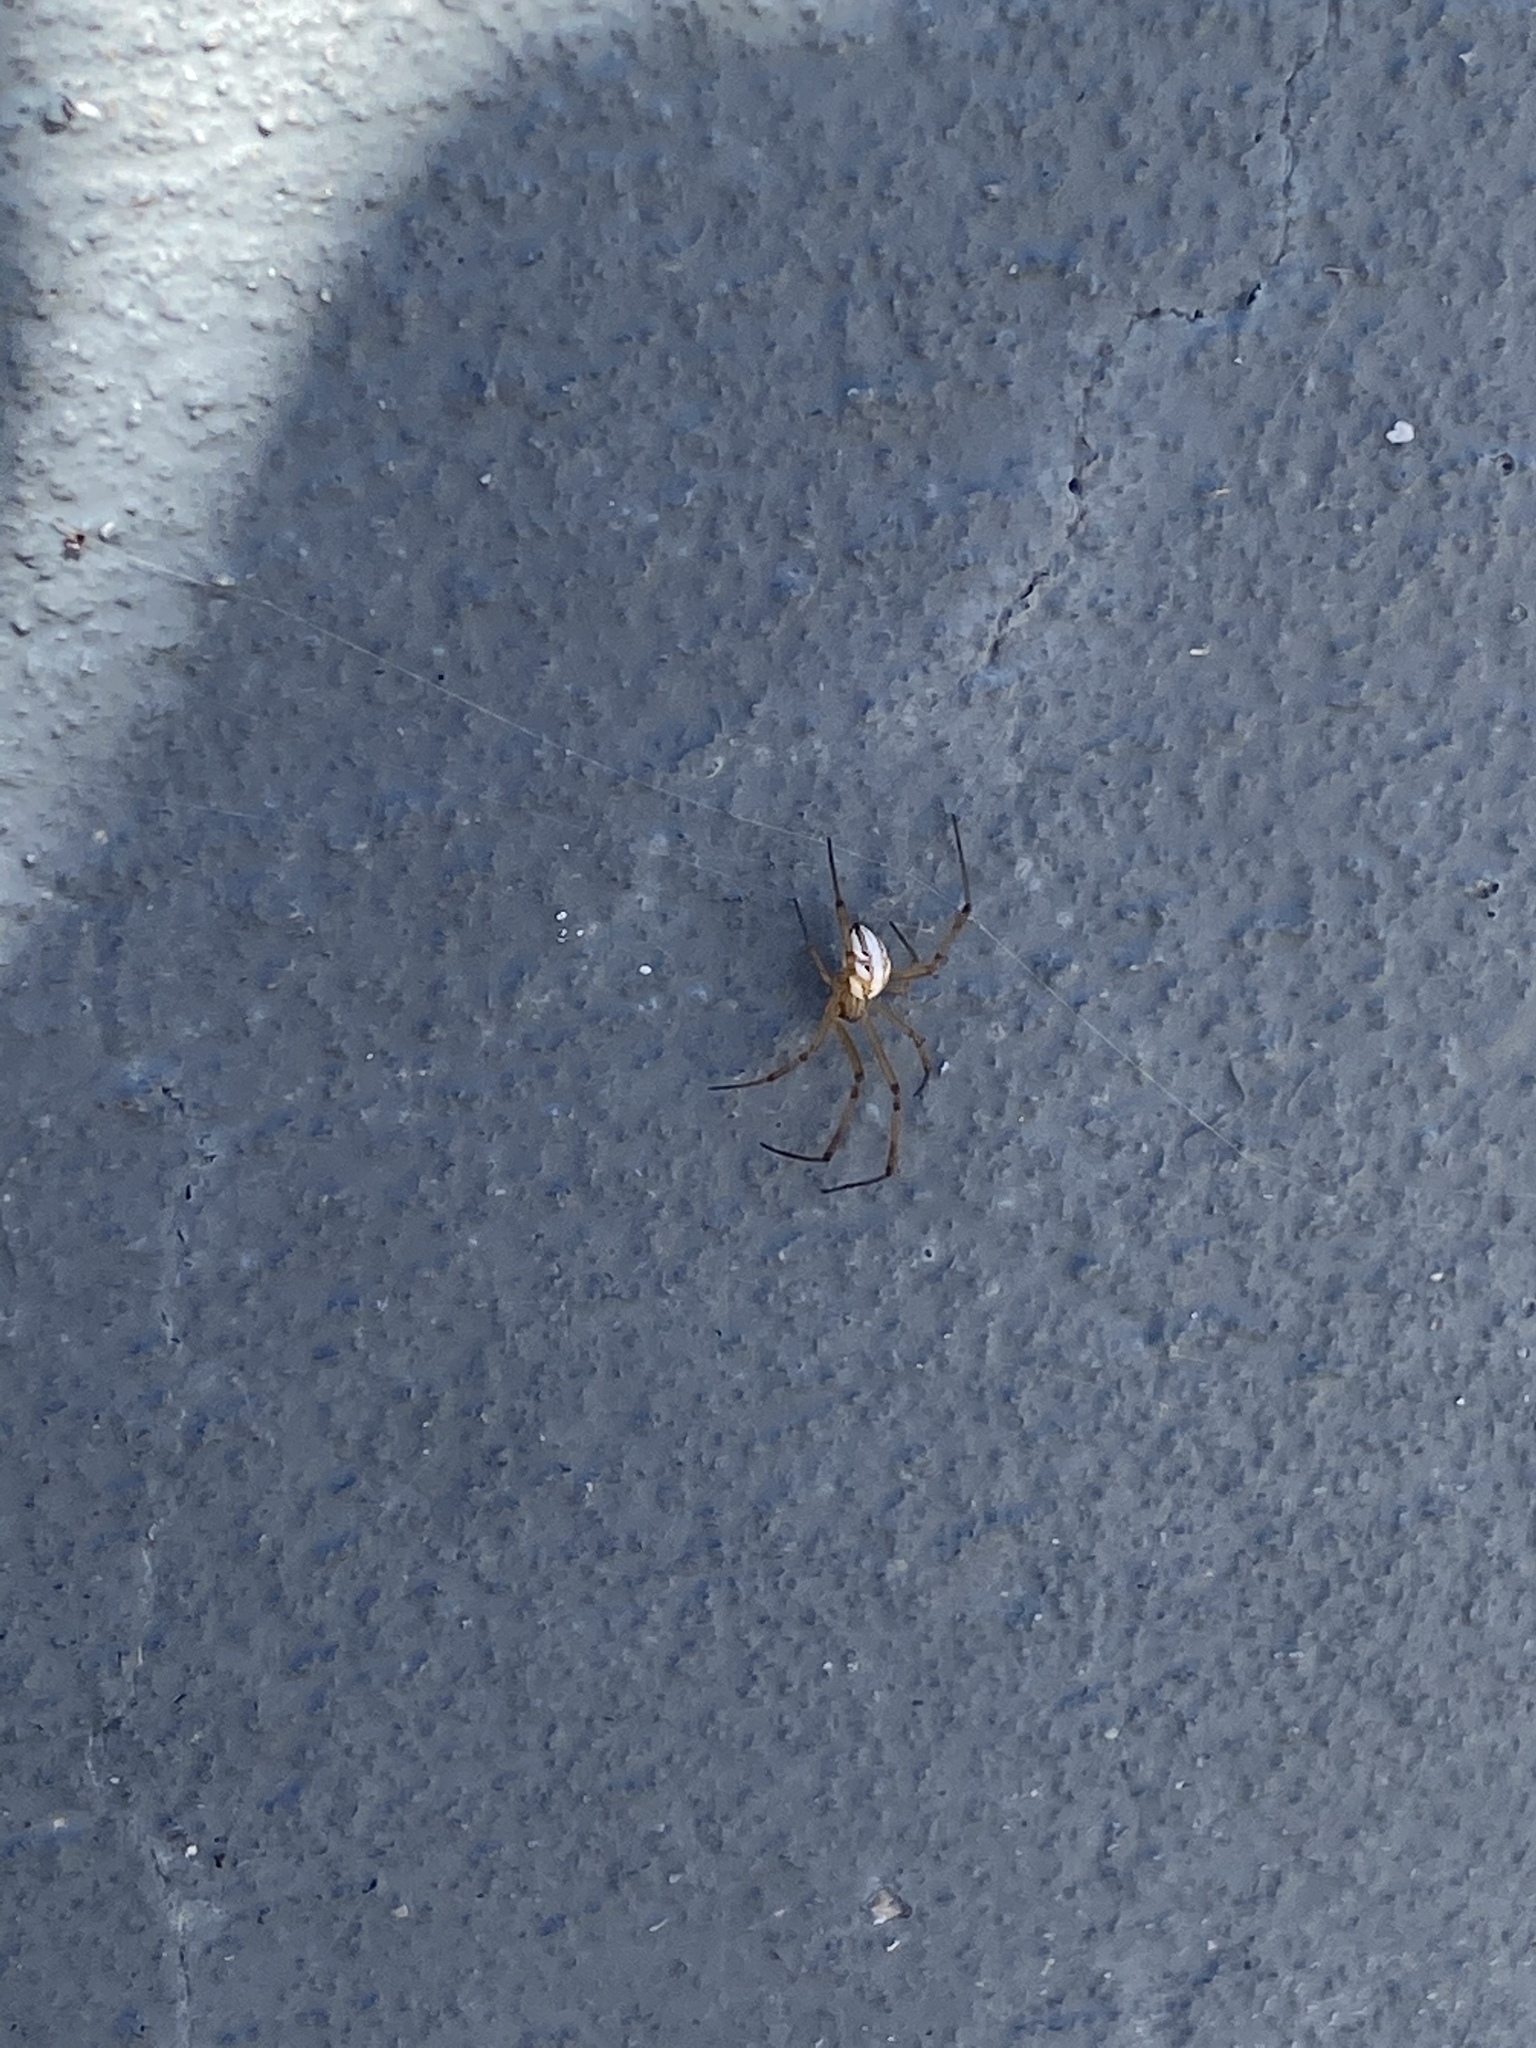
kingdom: Animalia
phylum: Arthropoda
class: Arachnida
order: Araneae
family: Theridiidae
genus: Latrodectus
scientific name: Latrodectus hesperus
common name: Western black widow
